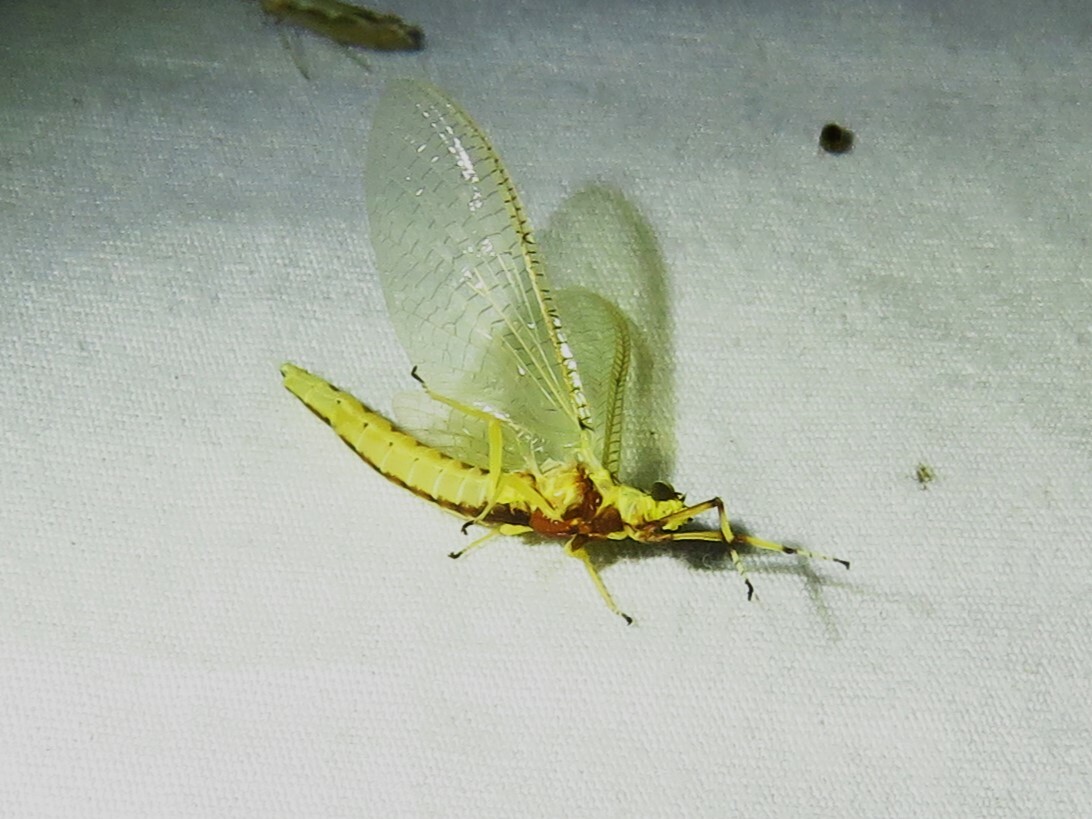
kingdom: Animalia
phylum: Arthropoda
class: Insecta
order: Ephemeroptera
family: Ephemeridae
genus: Hexagenia
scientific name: Hexagenia limbata
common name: Giant mayfly
